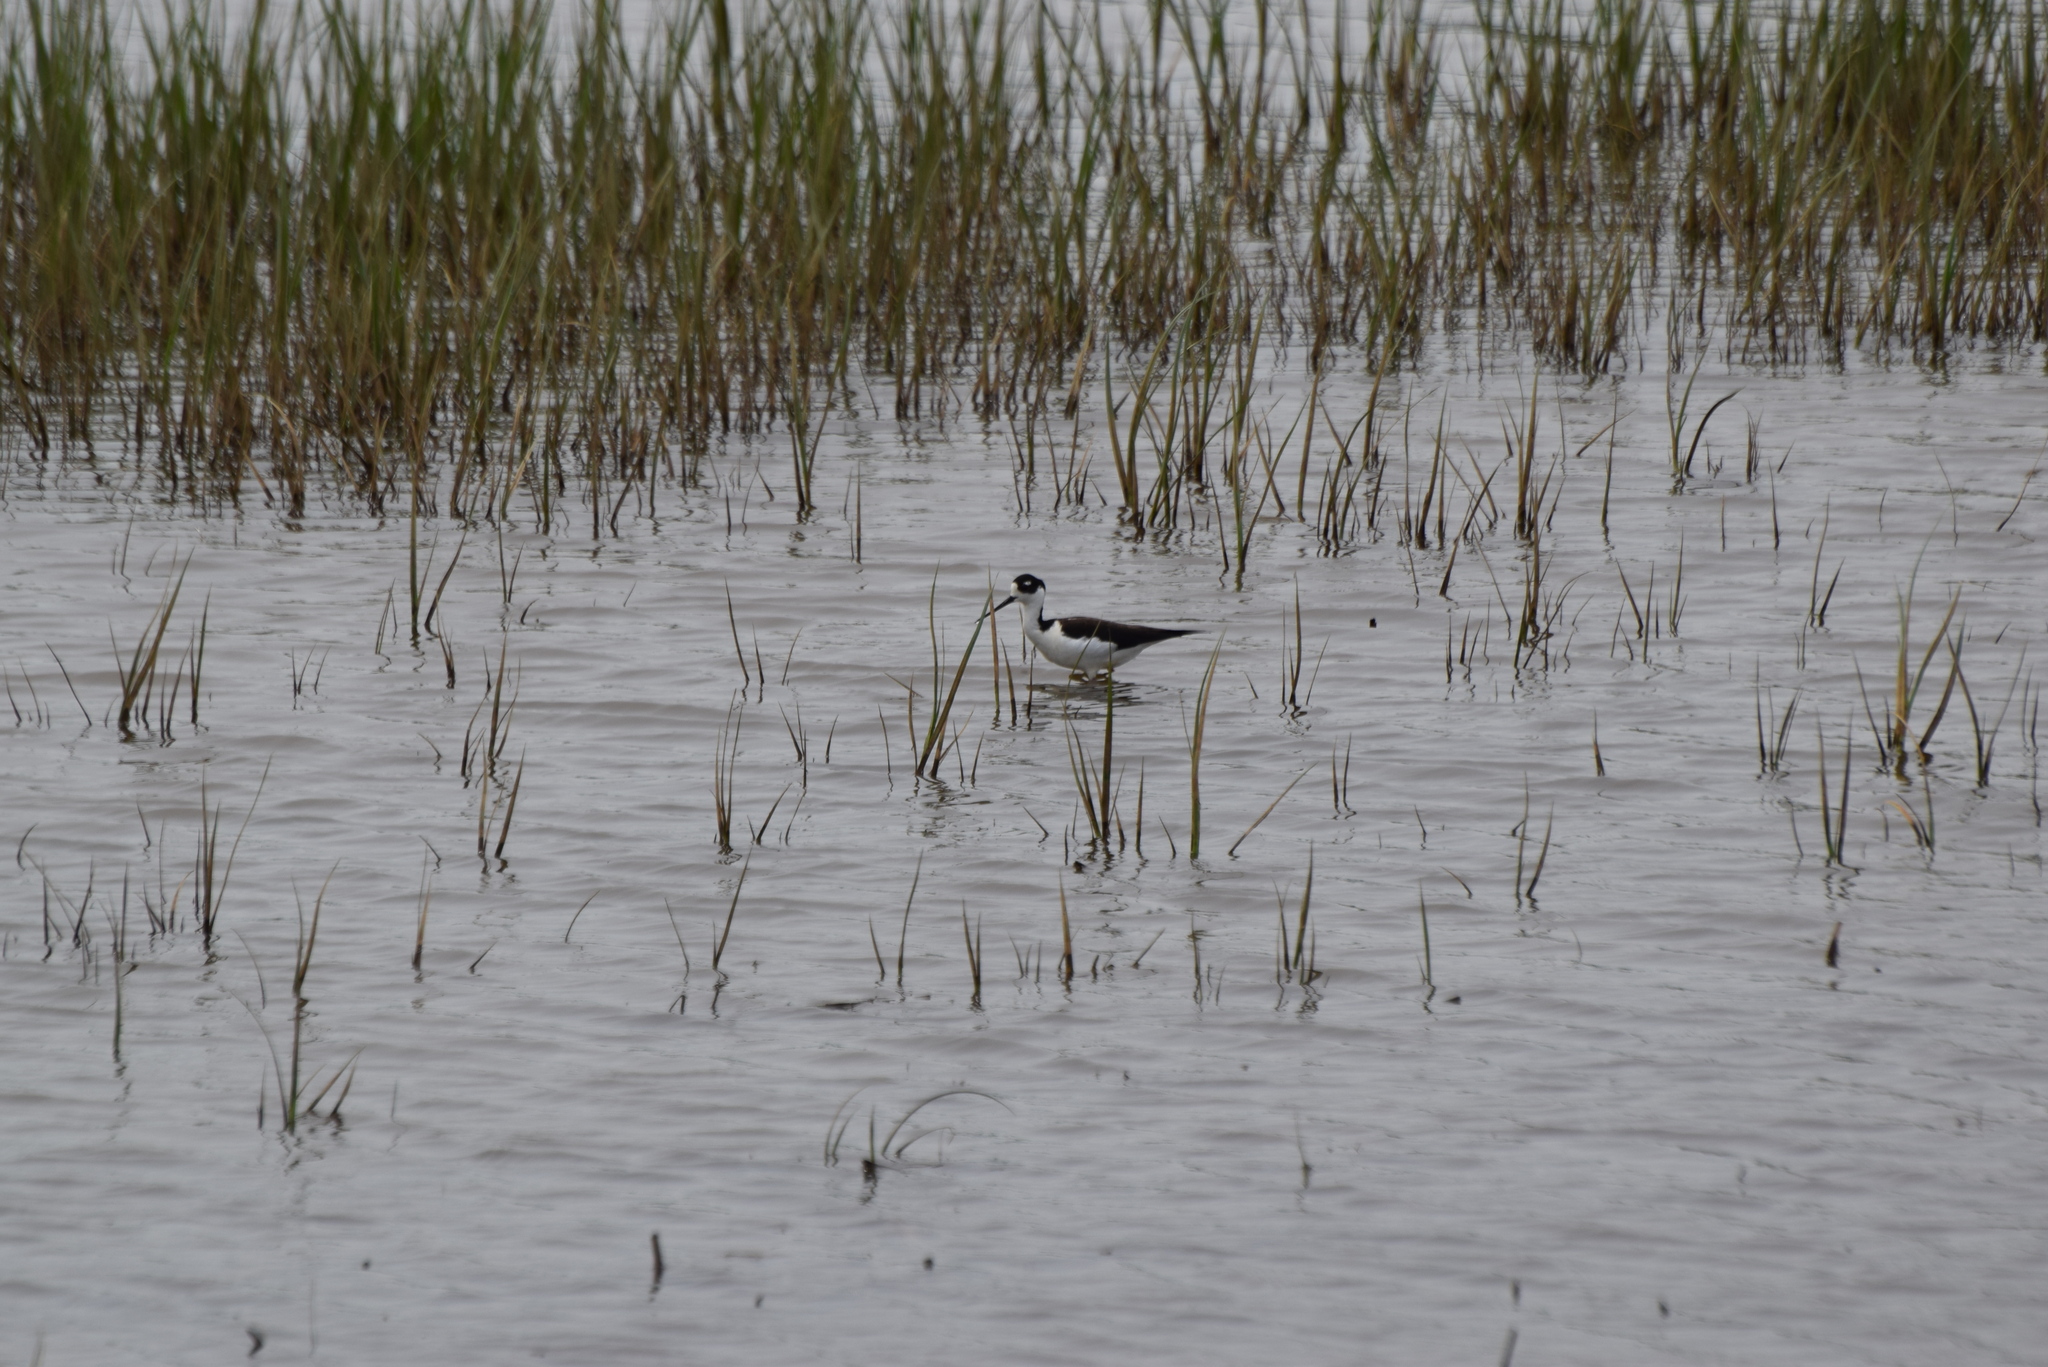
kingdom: Animalia
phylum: Chordata
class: Aves
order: Charadriiformes
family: Recurvirostridae
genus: Himantopus
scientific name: Himantopus mexicanus
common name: Black-necked stilt
